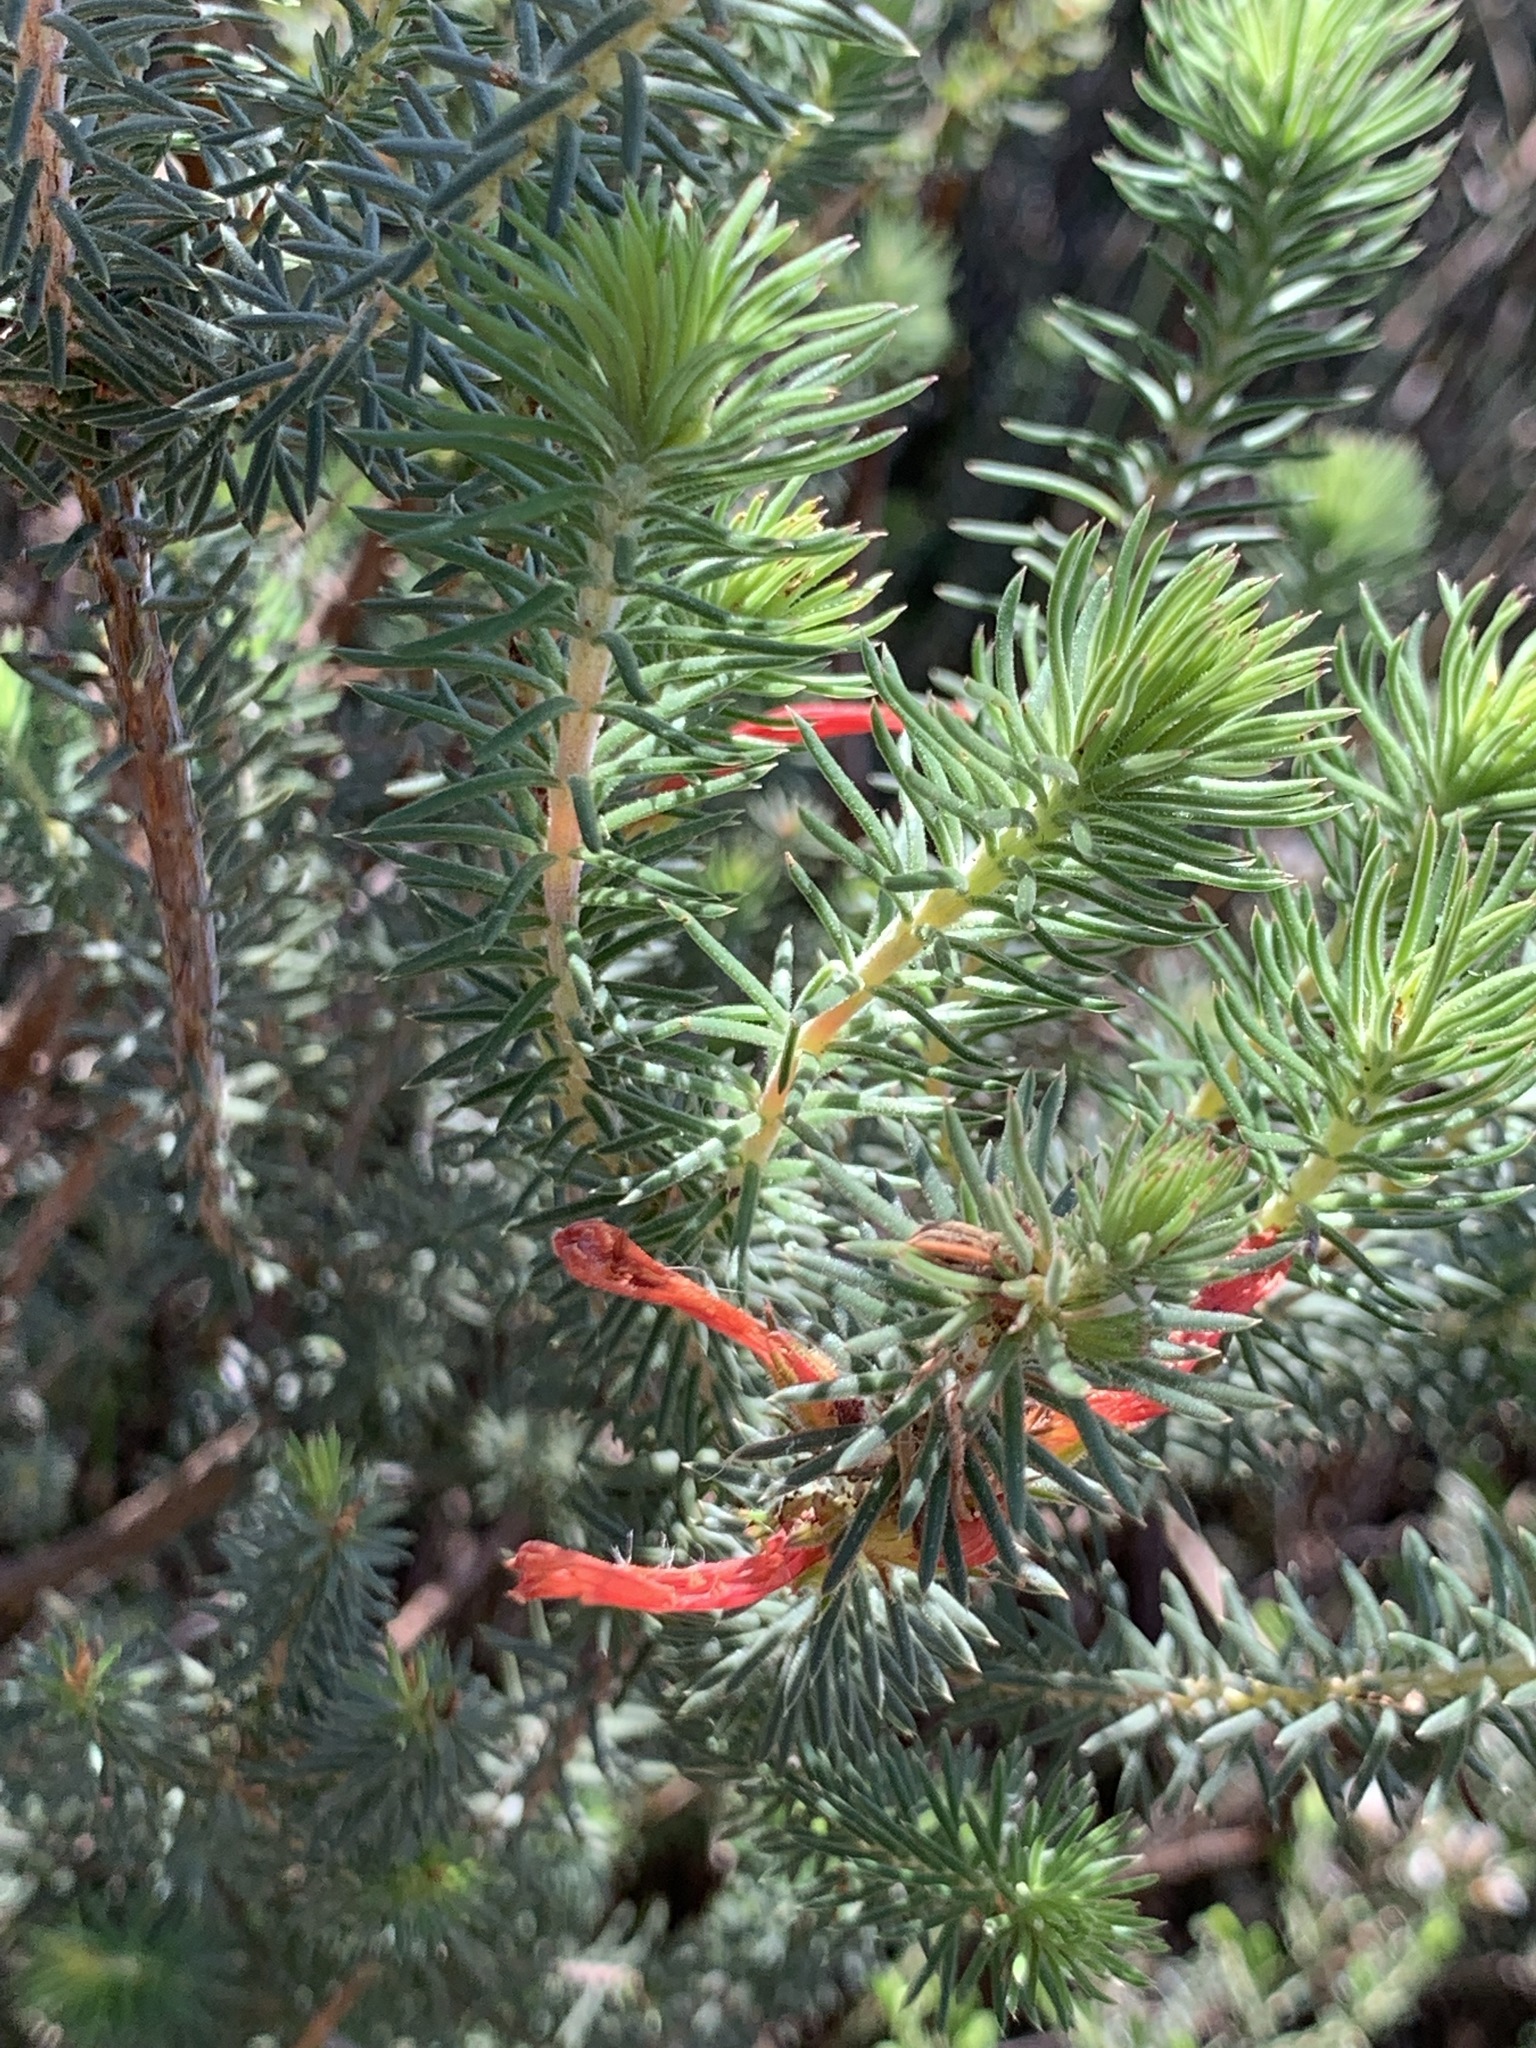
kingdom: Plantae
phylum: Tracheophyta
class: Magnoliopsida
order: Ericales
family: Ericaceae
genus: Erica
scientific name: Erica abietina
